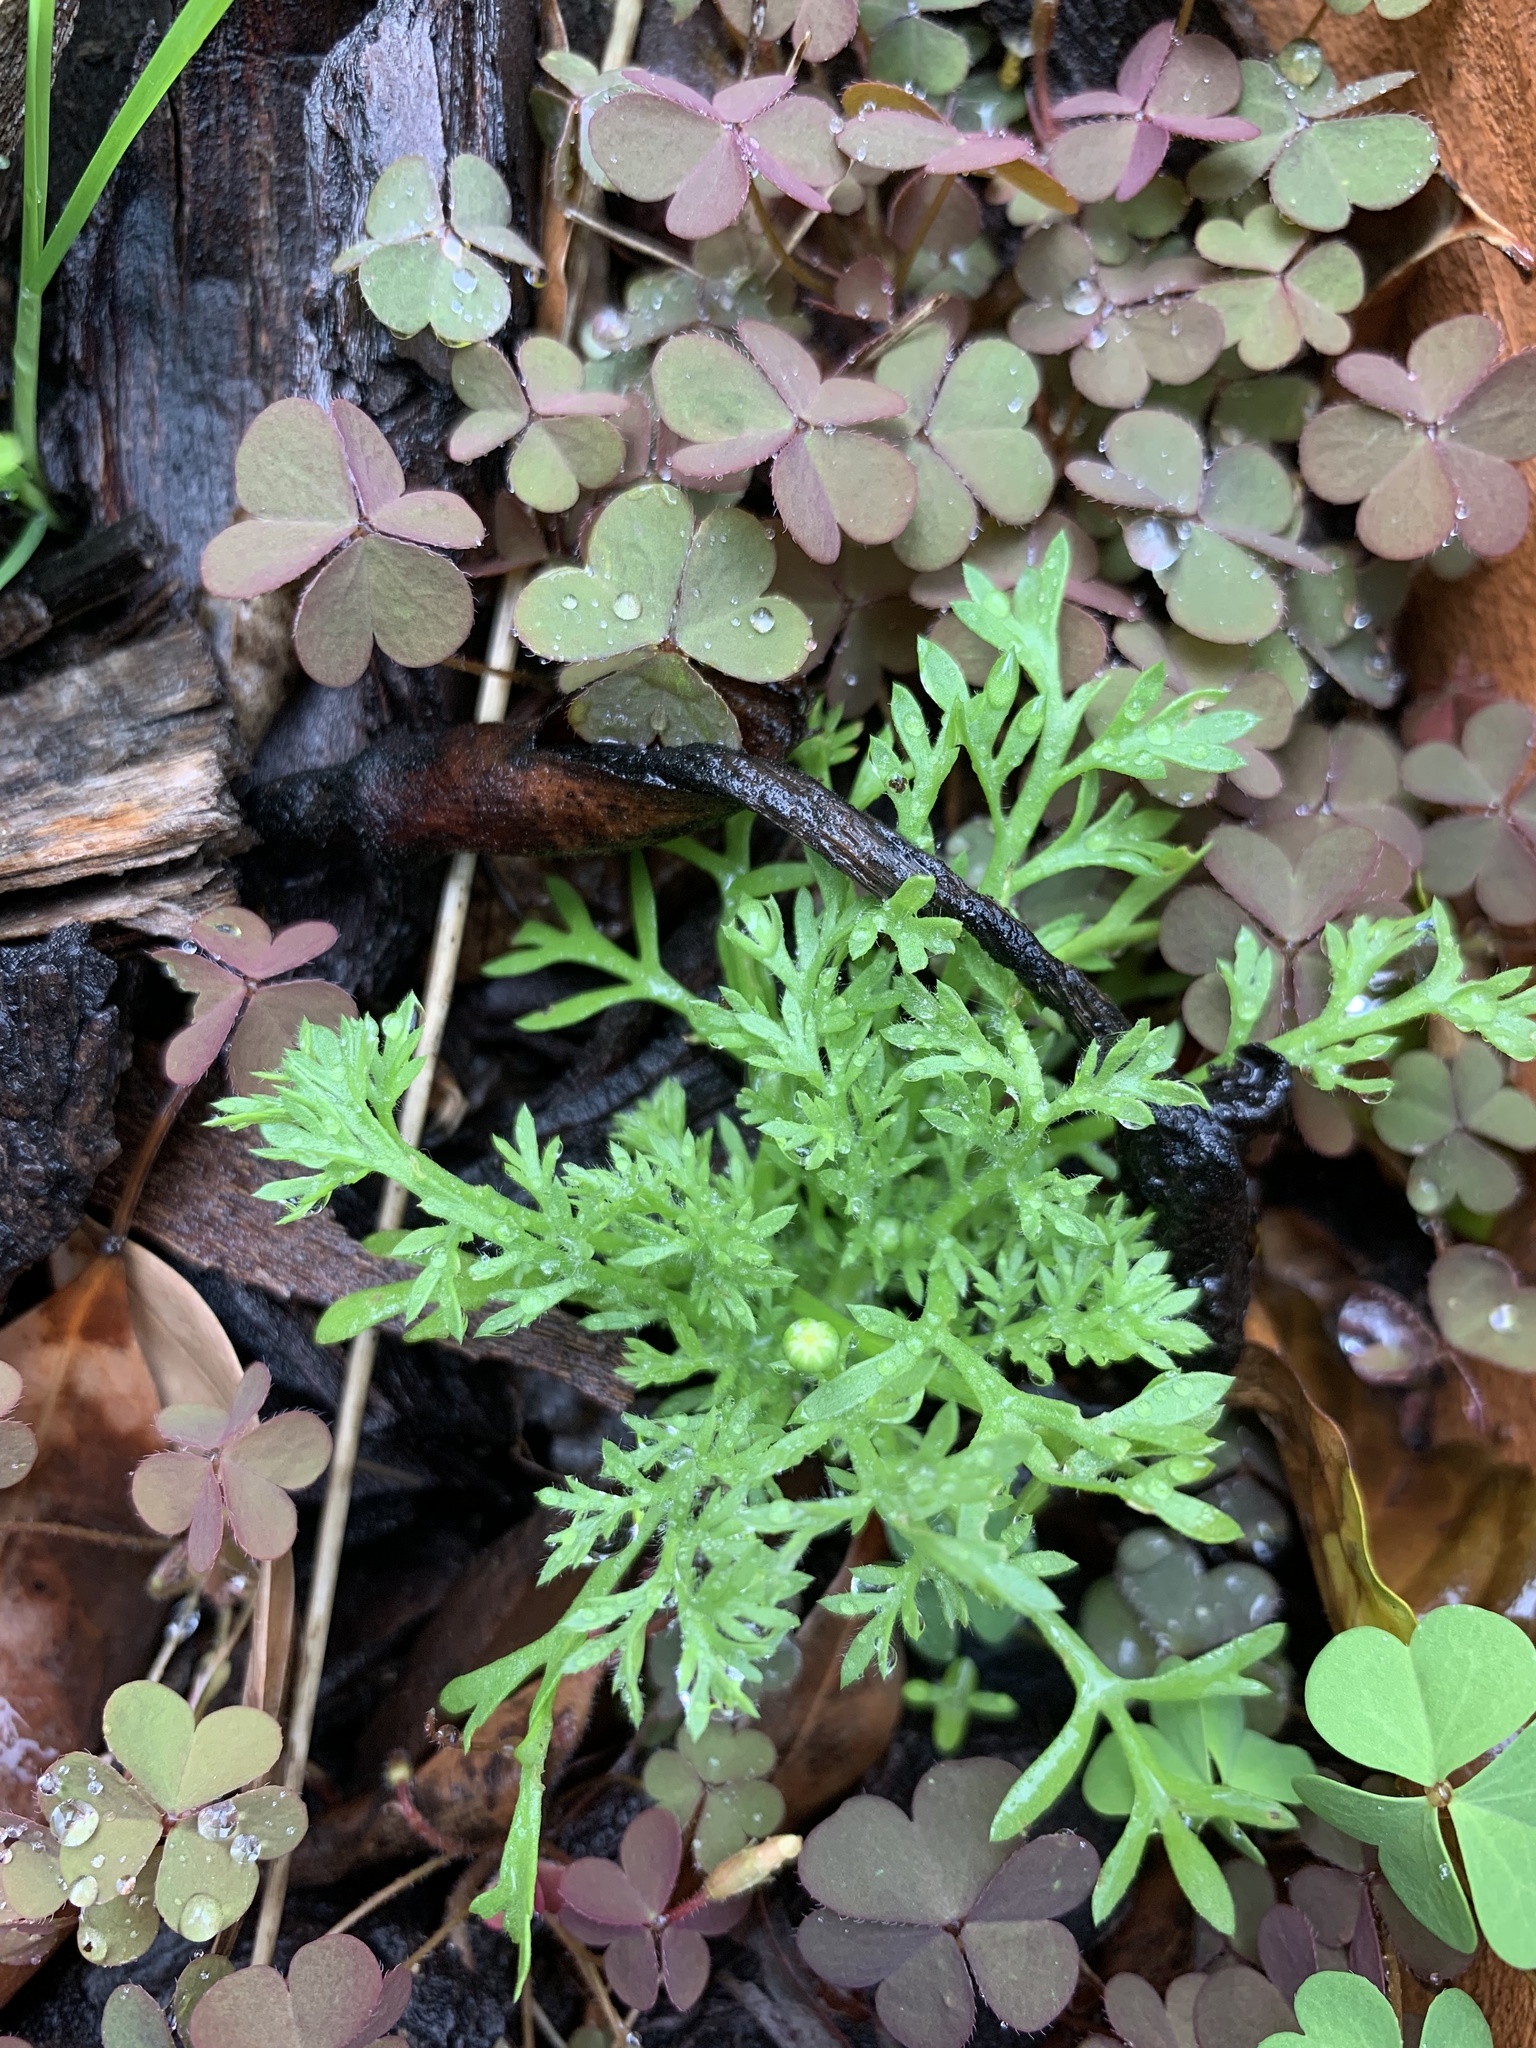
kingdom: Plantae
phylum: Tracheophyta
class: Magnoliopsida
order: Asterales
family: Asteraceae
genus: Cotula
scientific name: Cotula australis
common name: Australian waterbuttons
